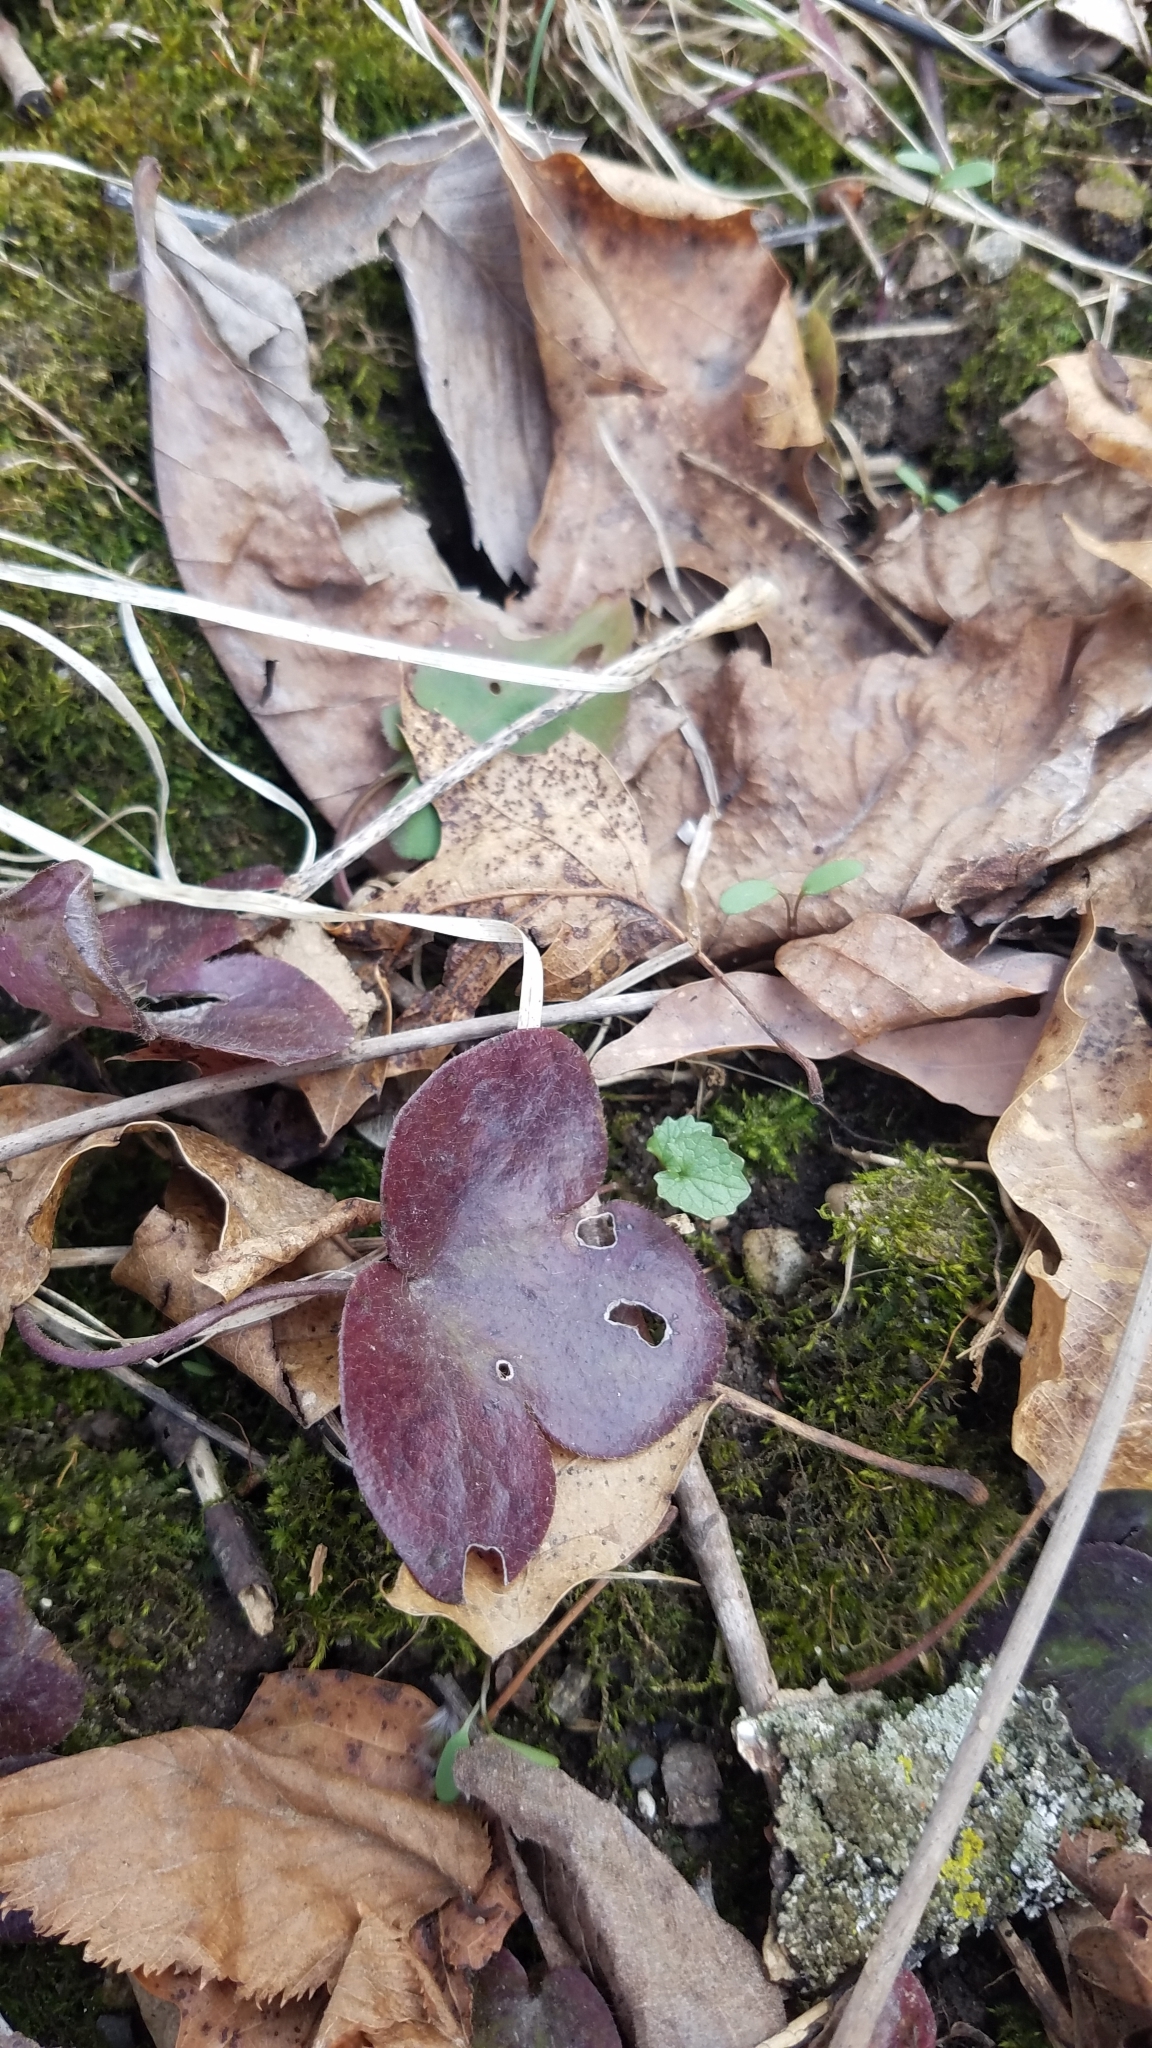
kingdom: Plantae
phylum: Tracheophyta
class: Magnoliopsida
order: Ranunculales
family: Ranunculaceae
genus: Hepatica
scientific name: Hepatica americana
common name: American hepatica
